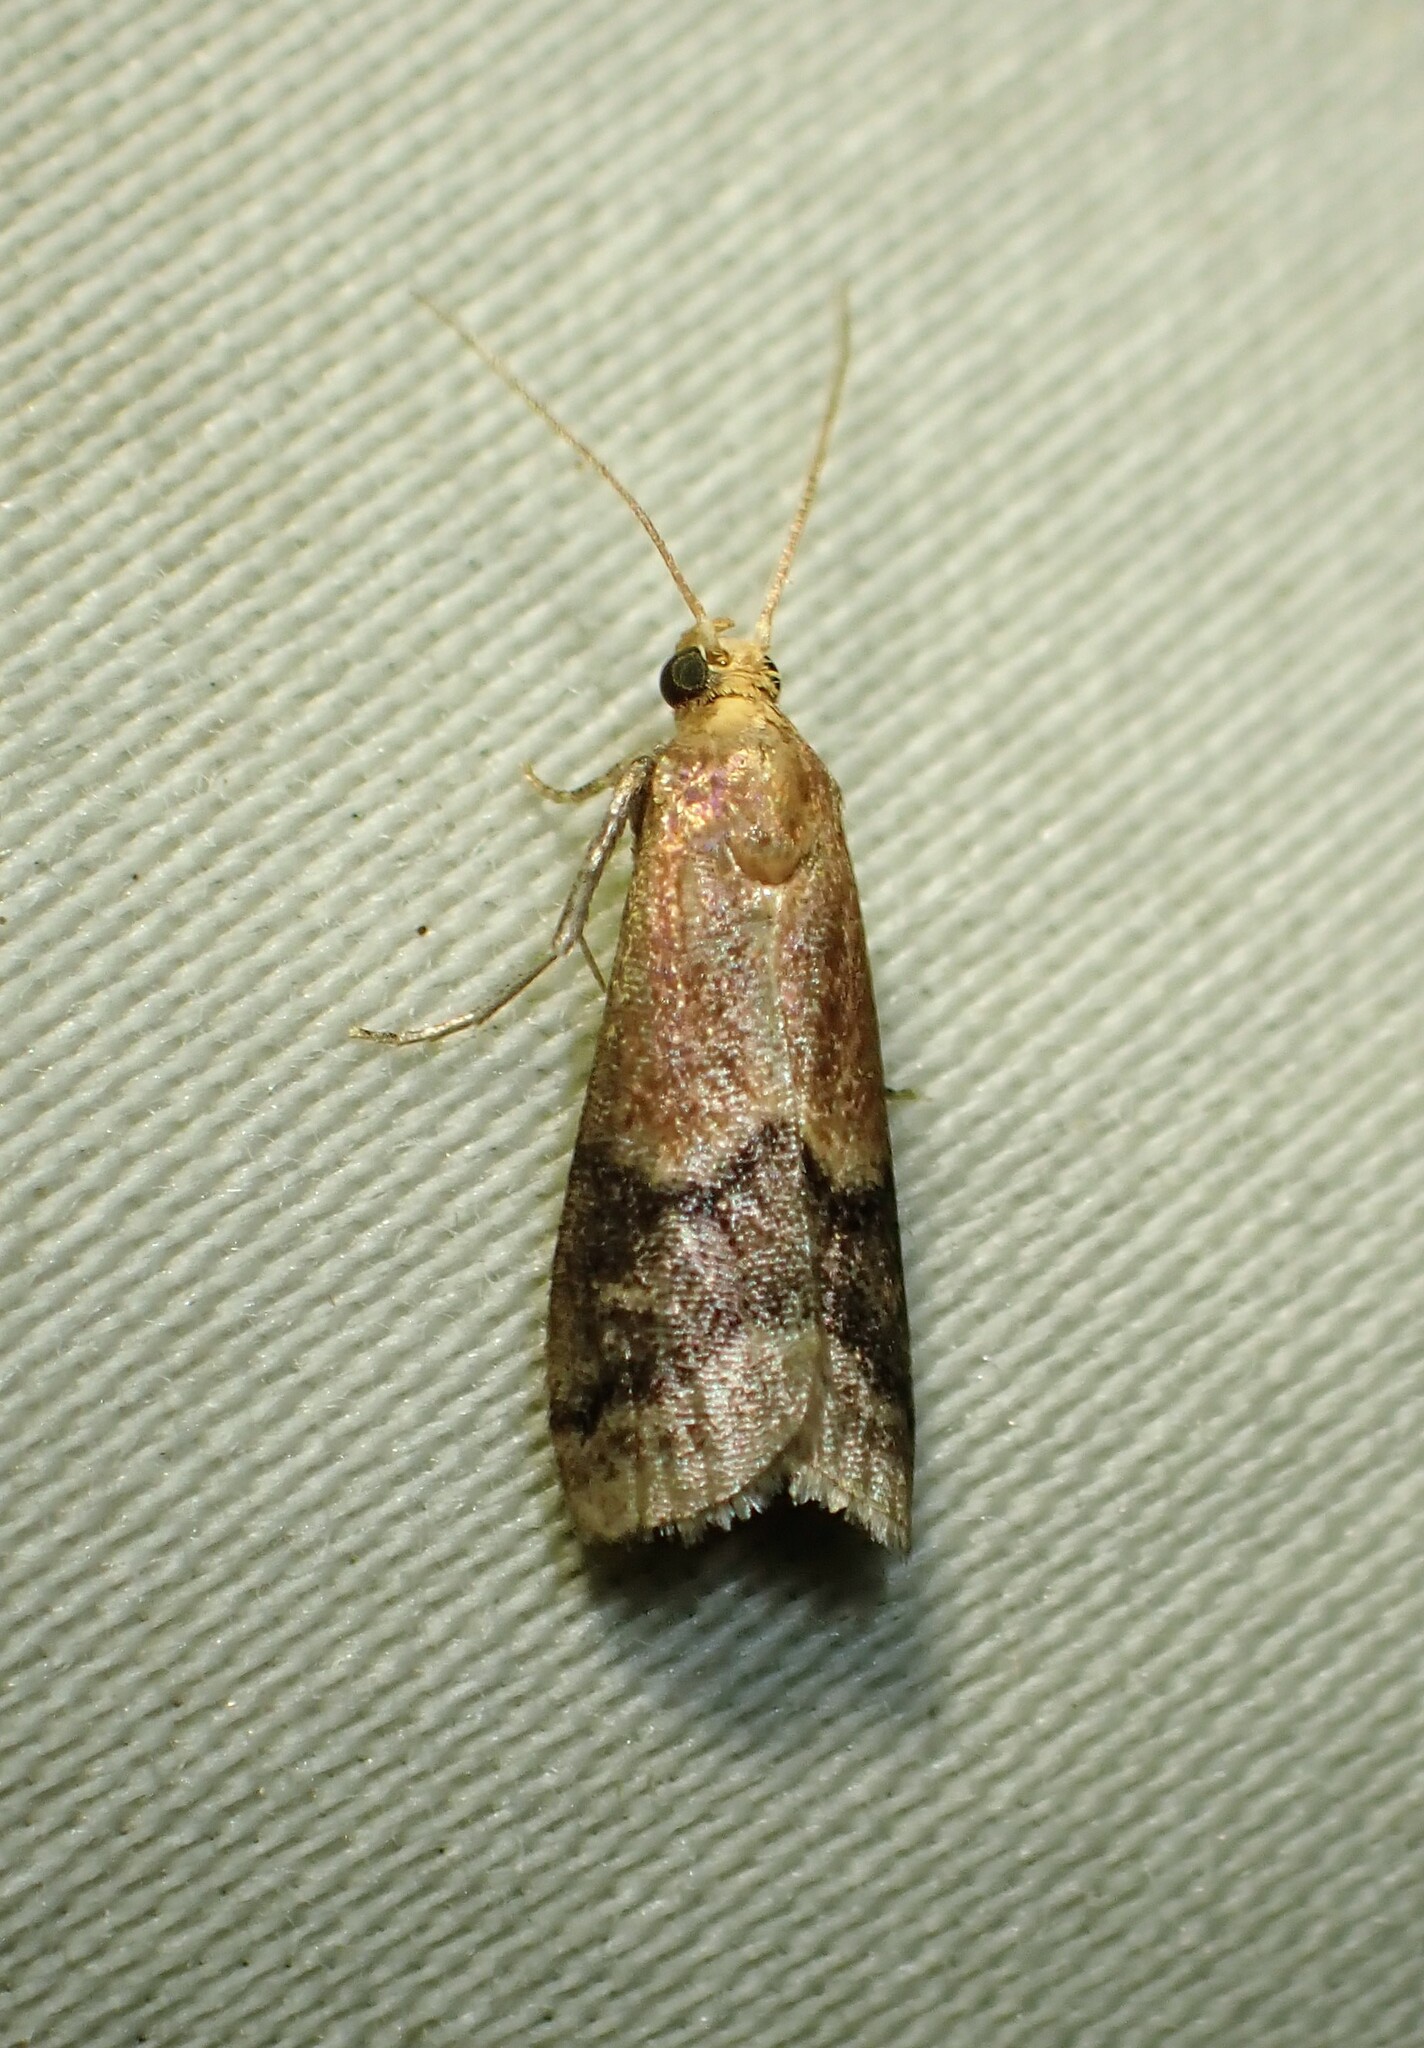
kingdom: Animalia
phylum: Arthropoda
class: Insecta
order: Lepidoptera
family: Pyralidae
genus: Eulogia
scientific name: Eulogia ochrifrontella
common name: Broad-banded eulogia moth
